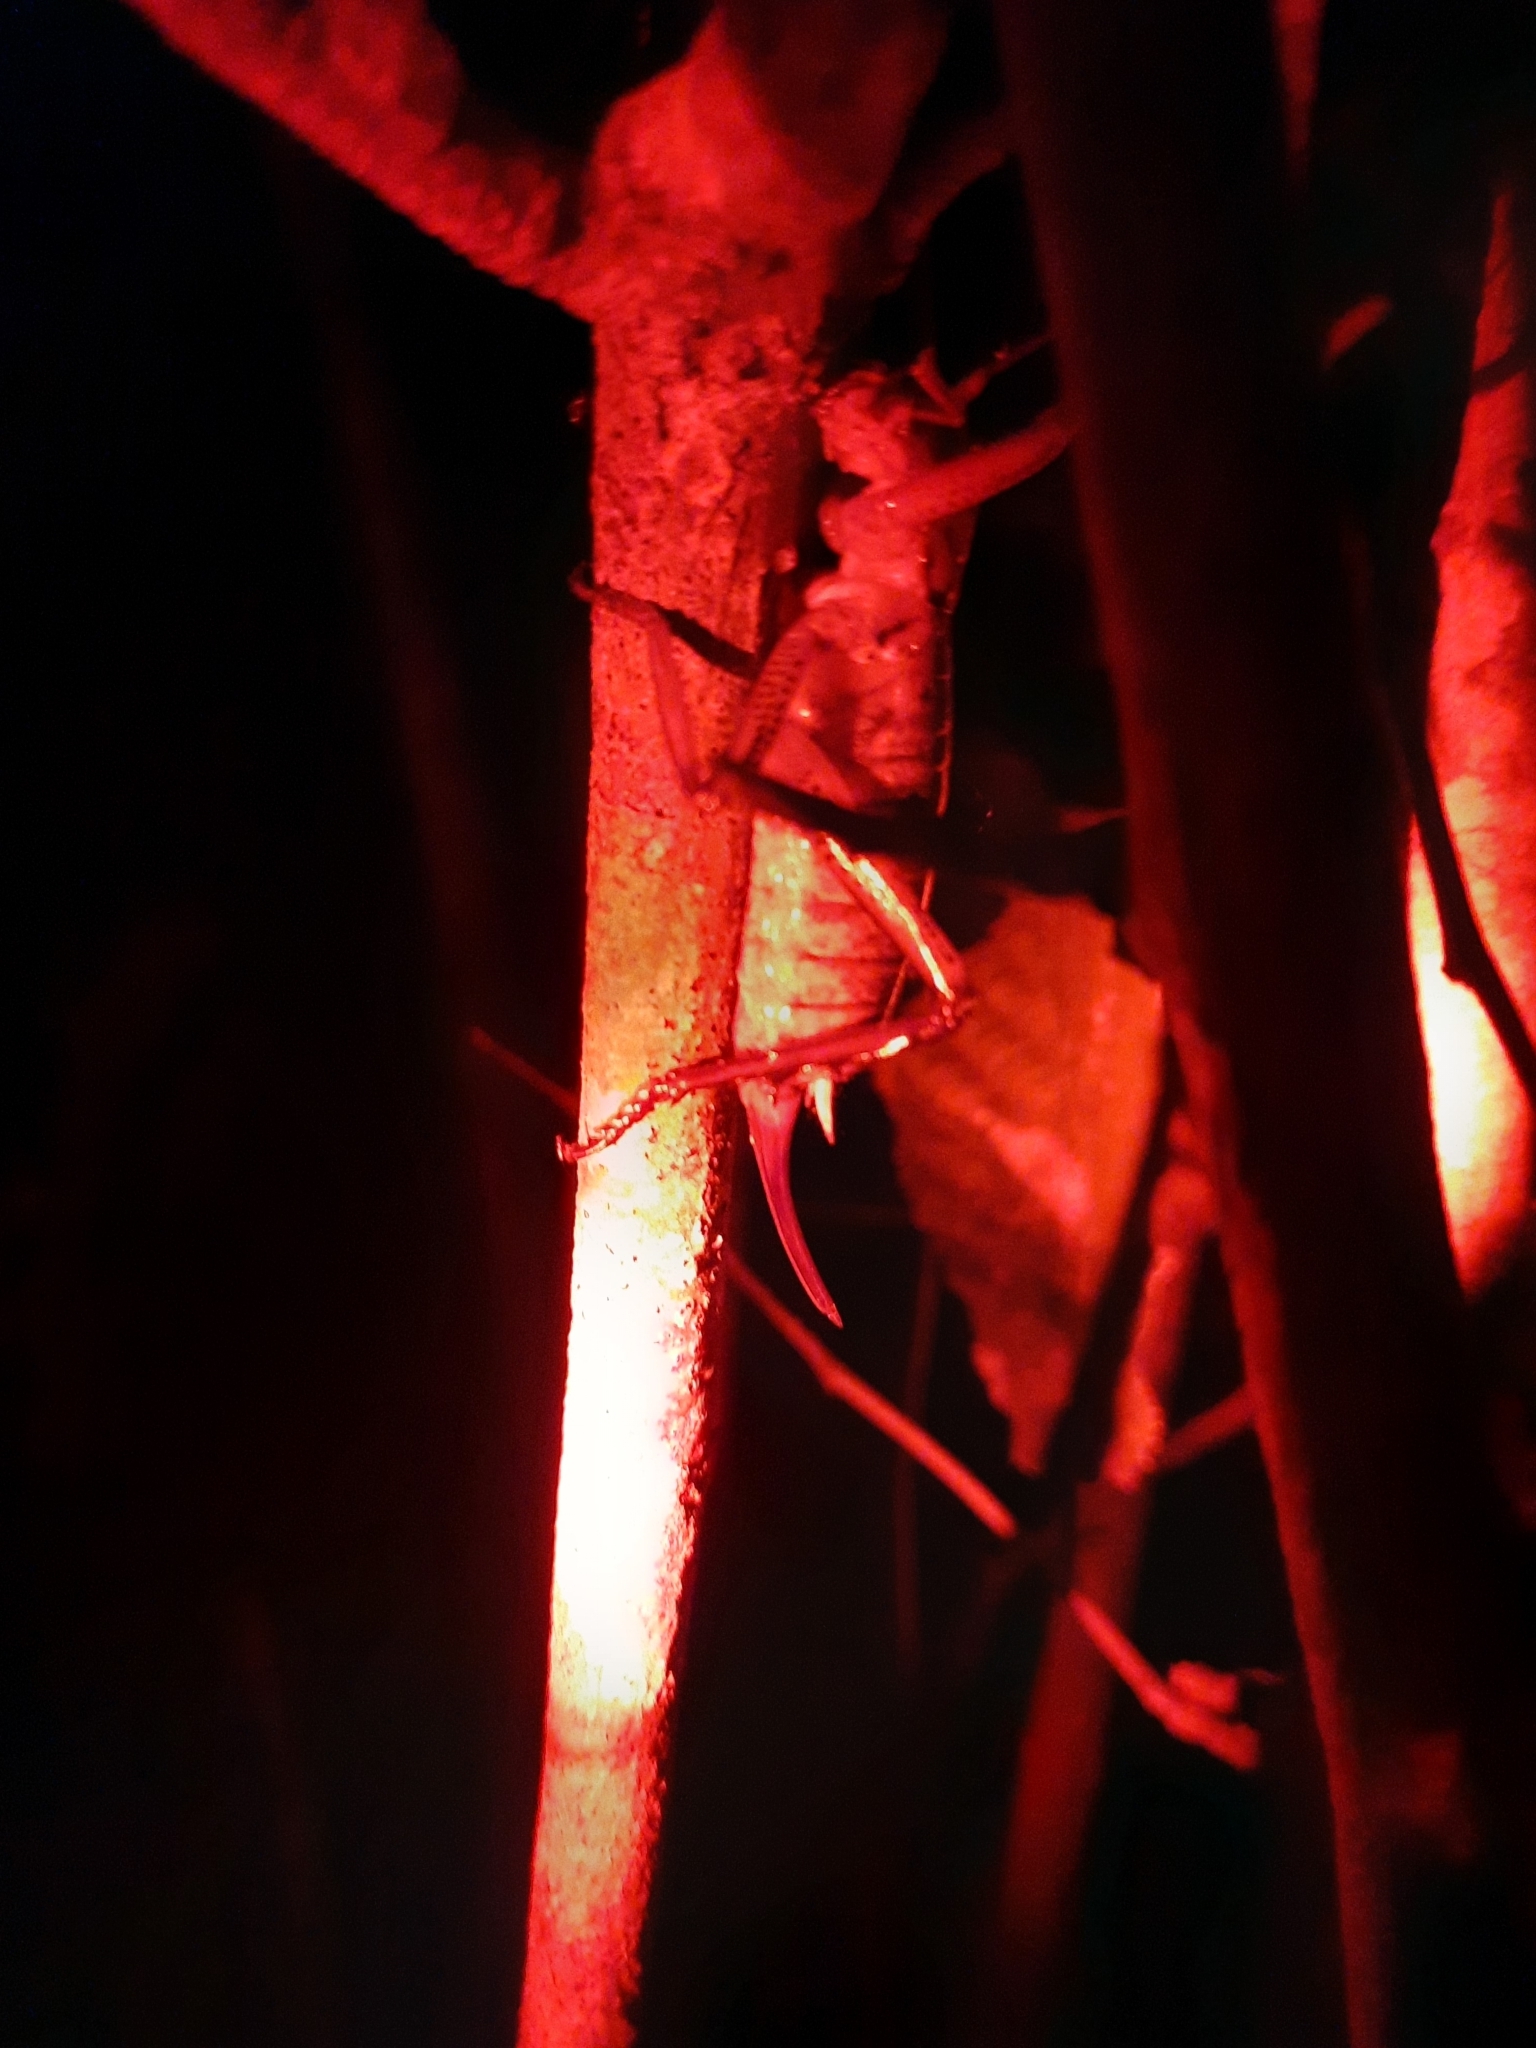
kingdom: Animalia
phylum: Arthropoda
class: Insecta
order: Orthoptera
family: Anostostomatidae
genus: Hemideina
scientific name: Hemideina thoracica
